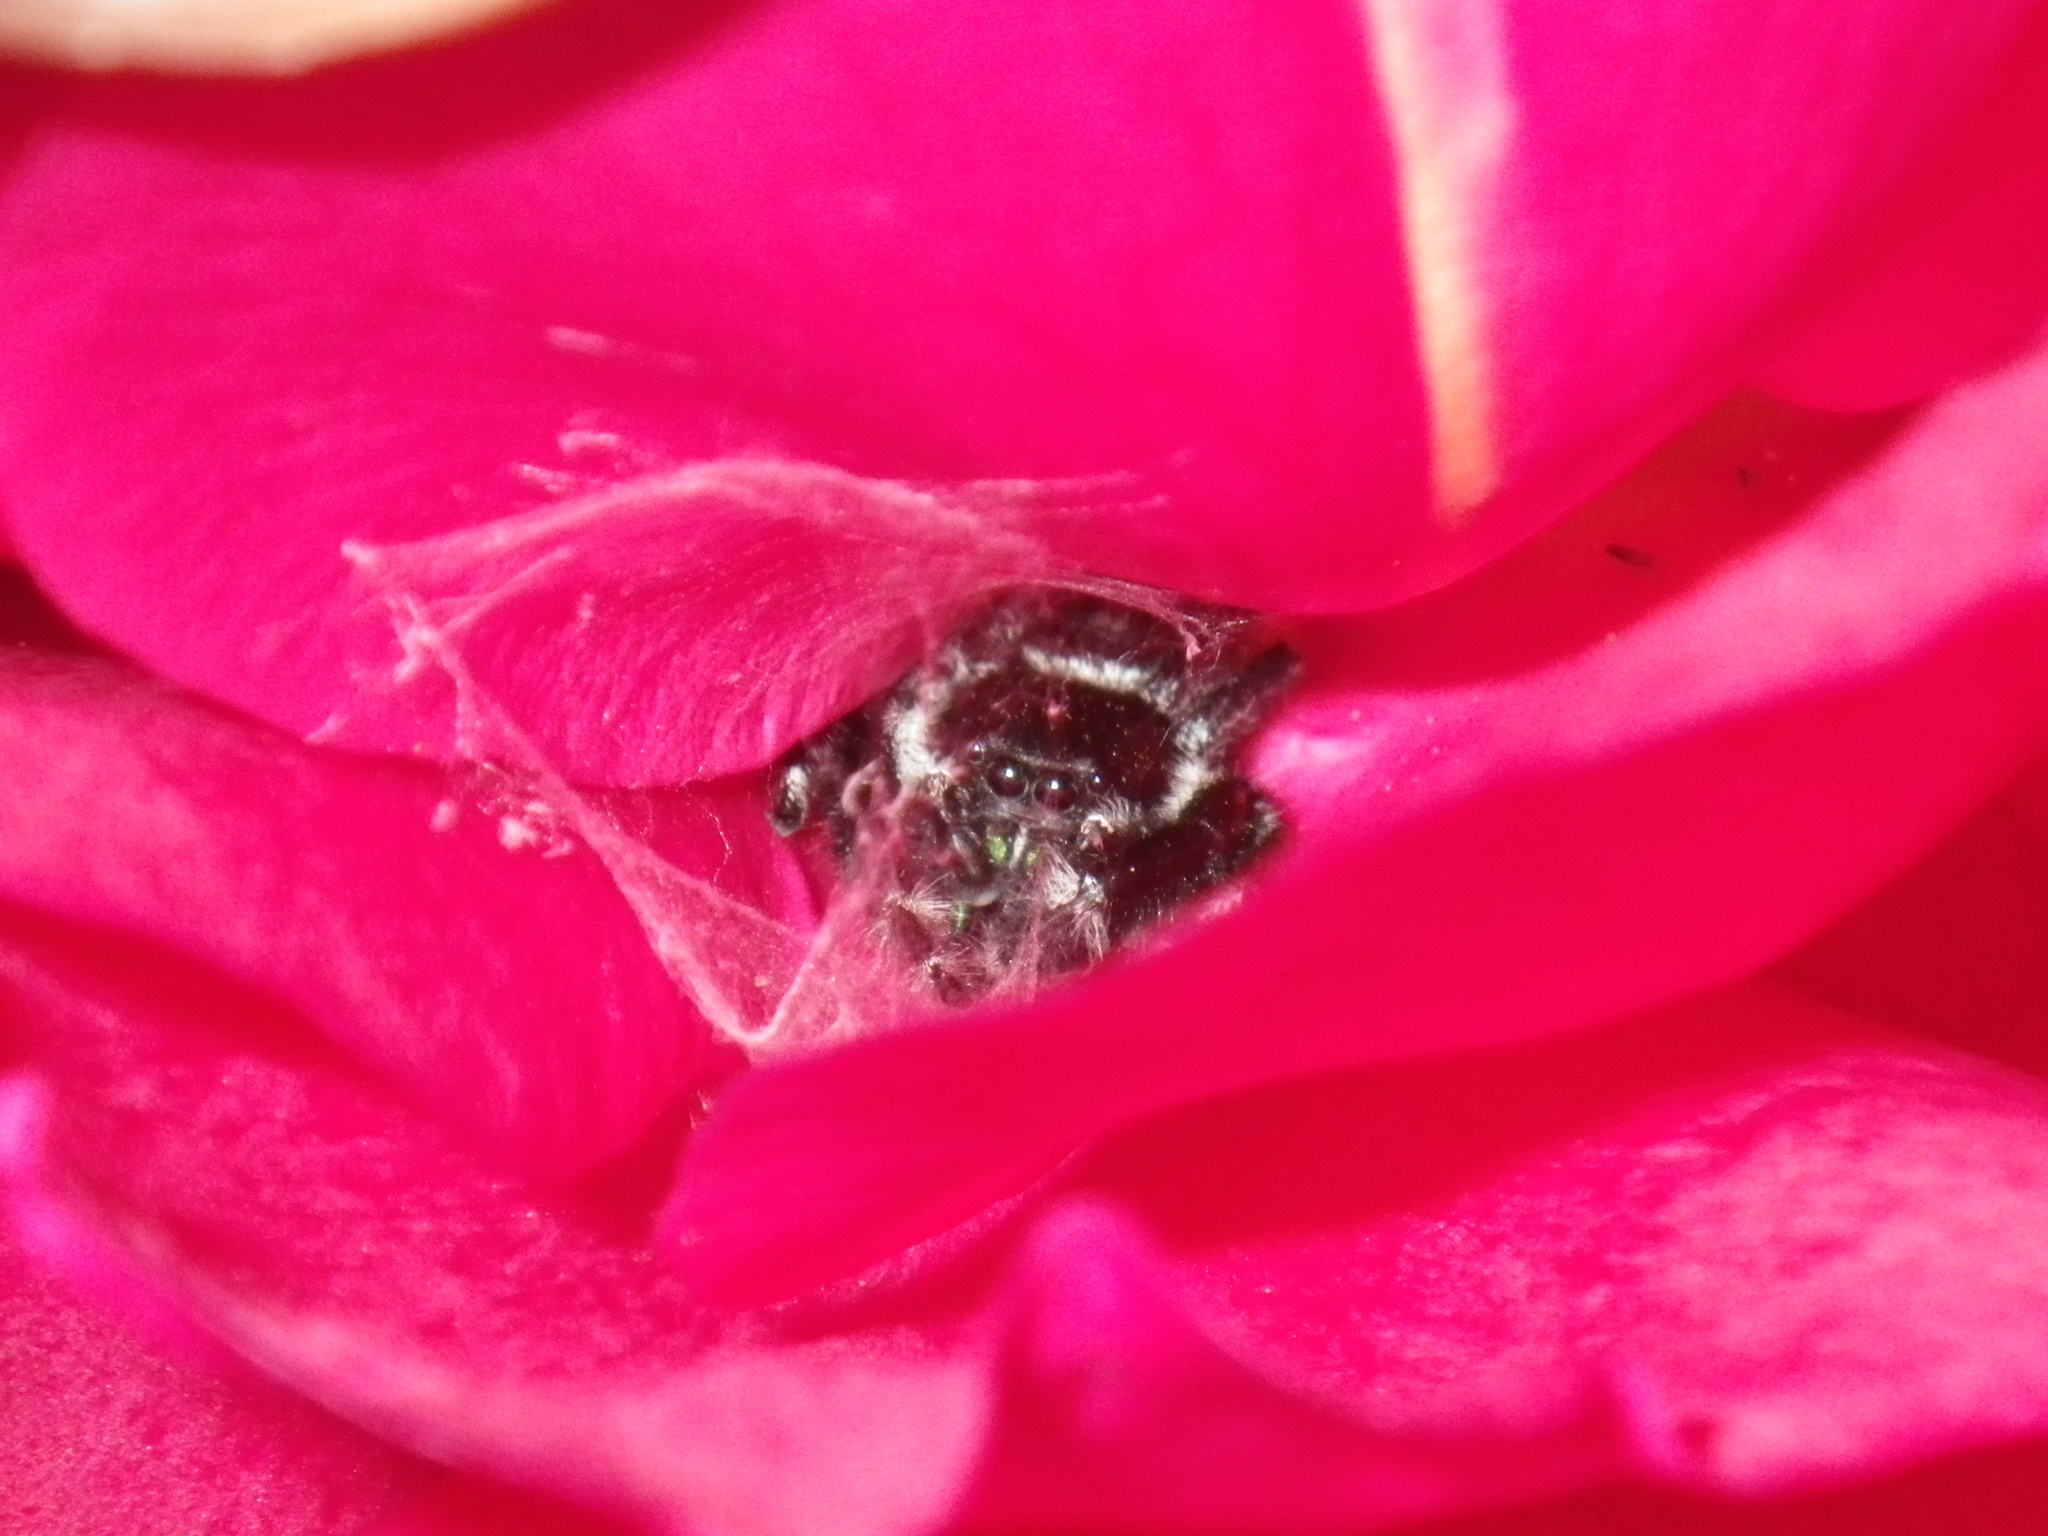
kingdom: Animalia
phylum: Arthropoda
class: Arachnida
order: Araneae
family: Salticidae
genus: Phidippus
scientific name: Phidippus audax
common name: Bold jumper
